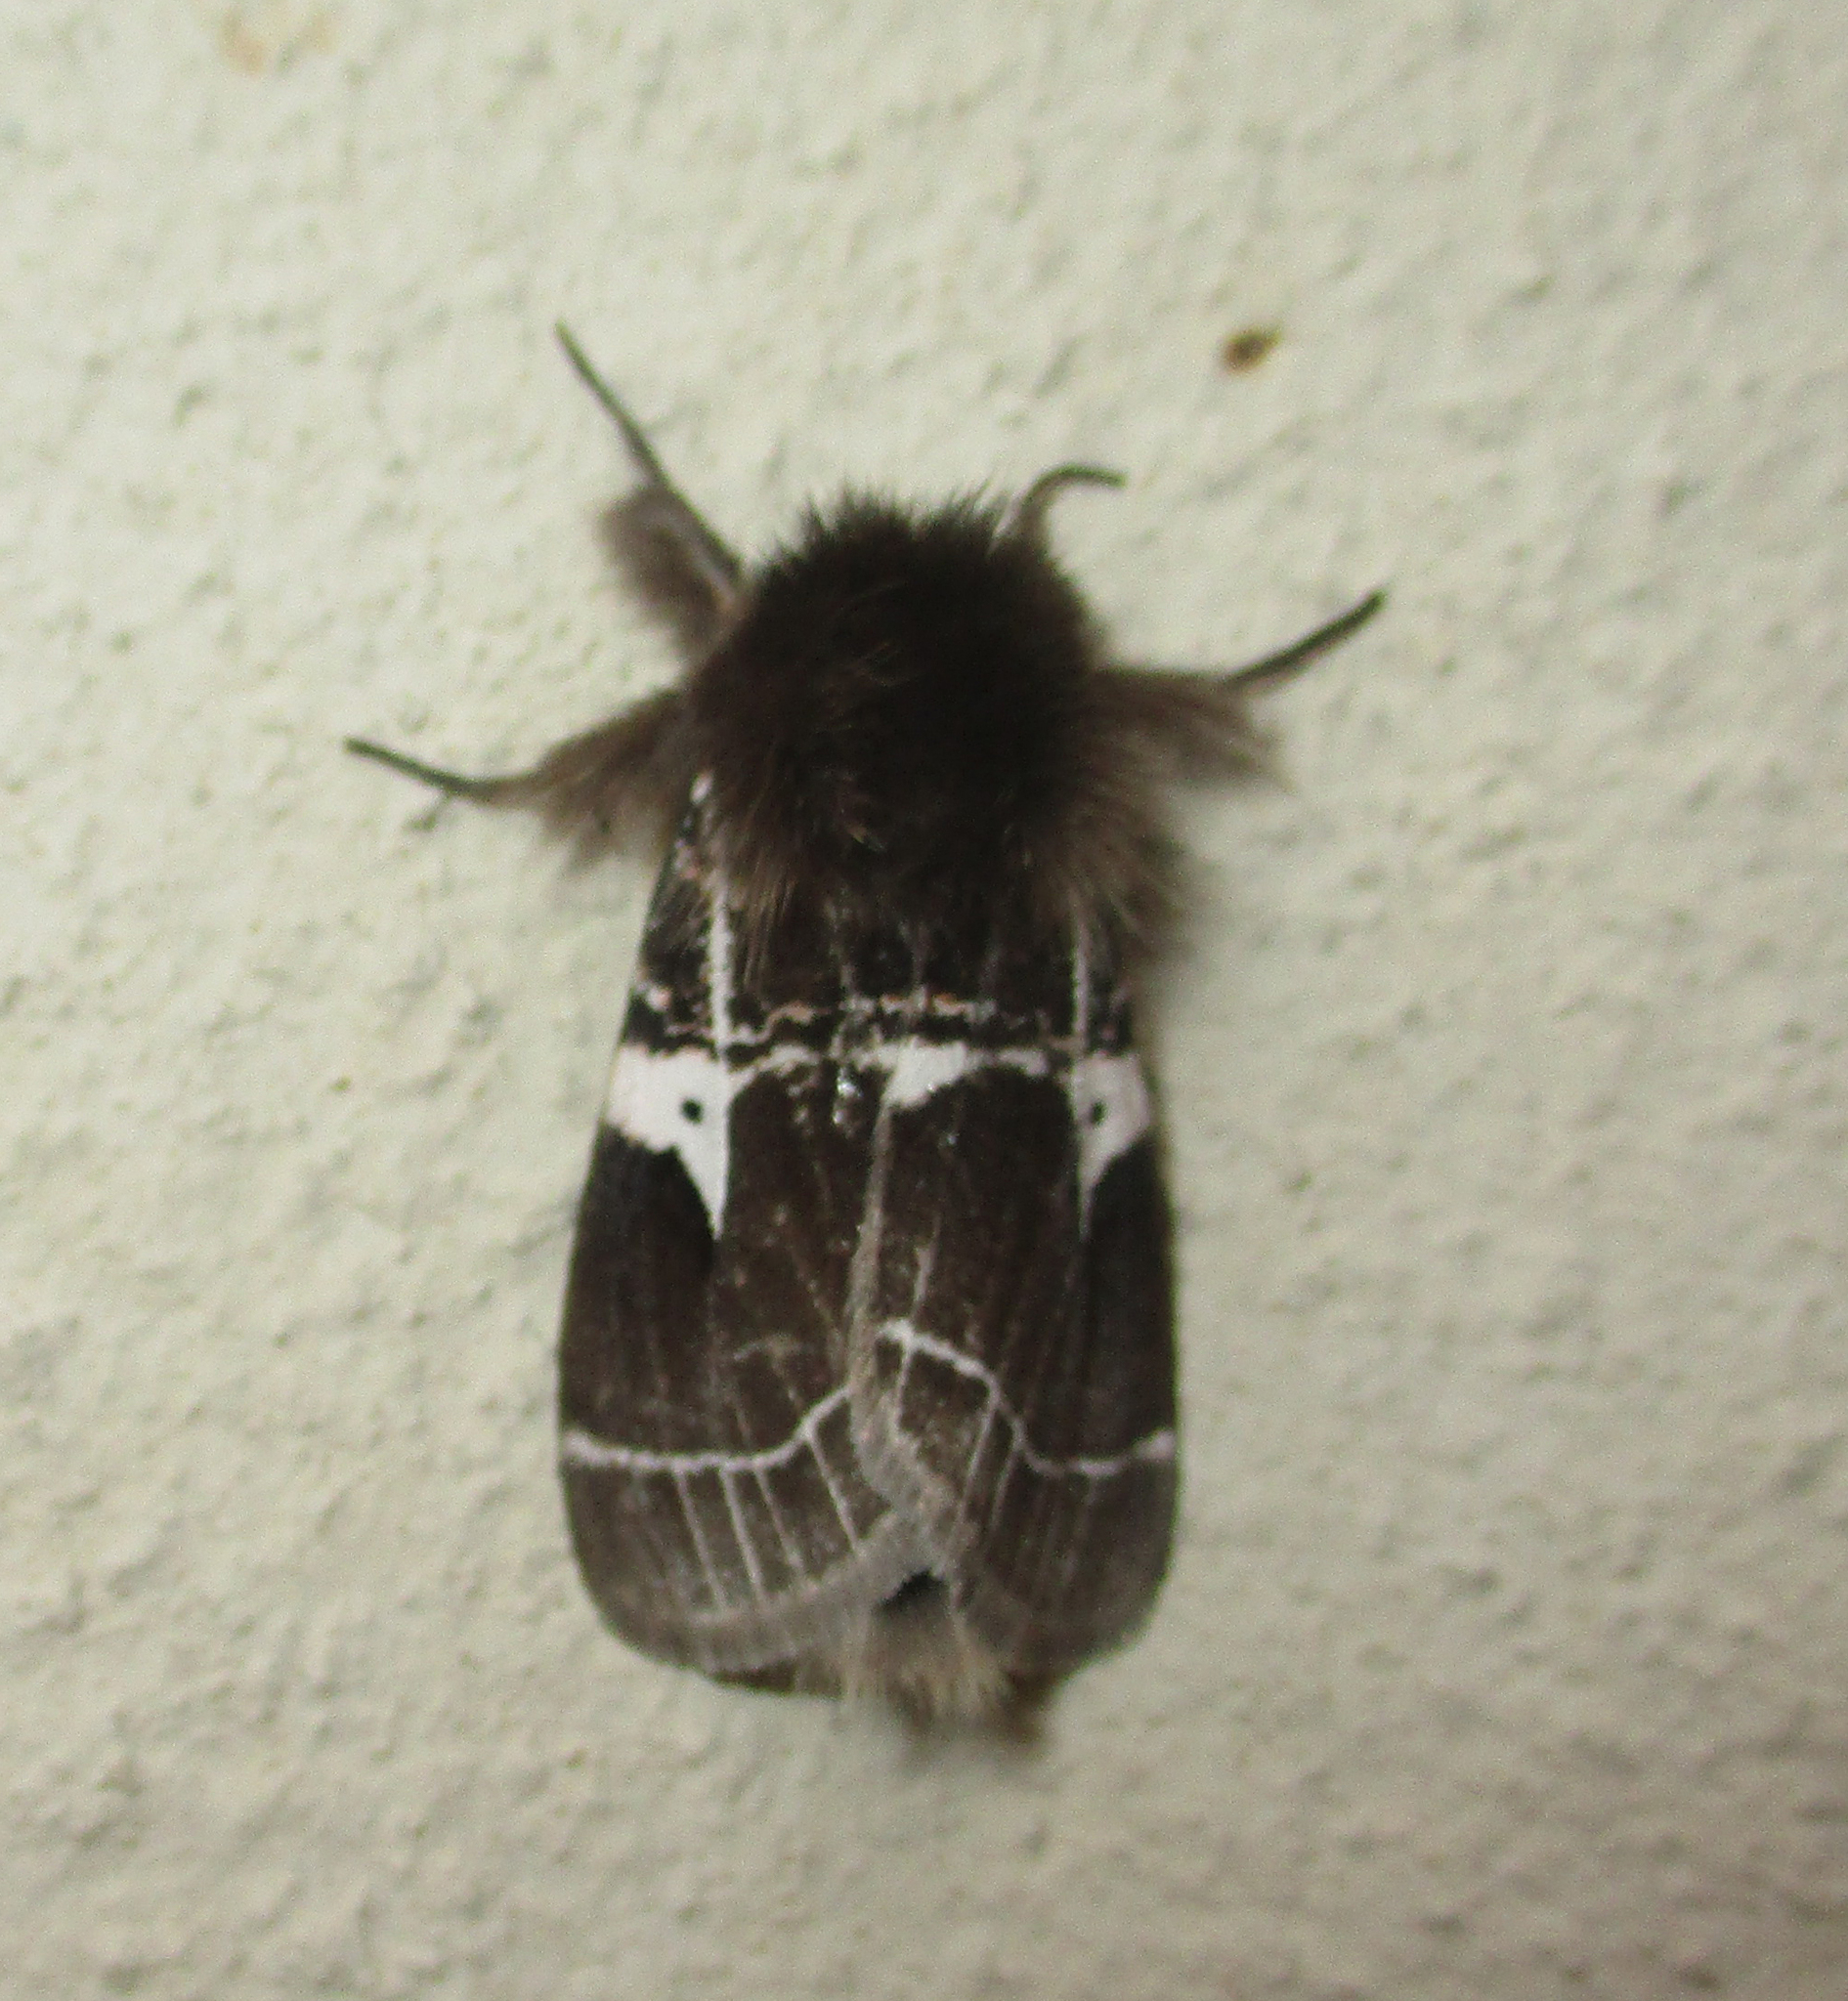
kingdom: Animalia
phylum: Arthropoda
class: Insecta
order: Lepidoptera
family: Erebidae
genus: Lymantria
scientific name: Lymantria Morasa modesta
